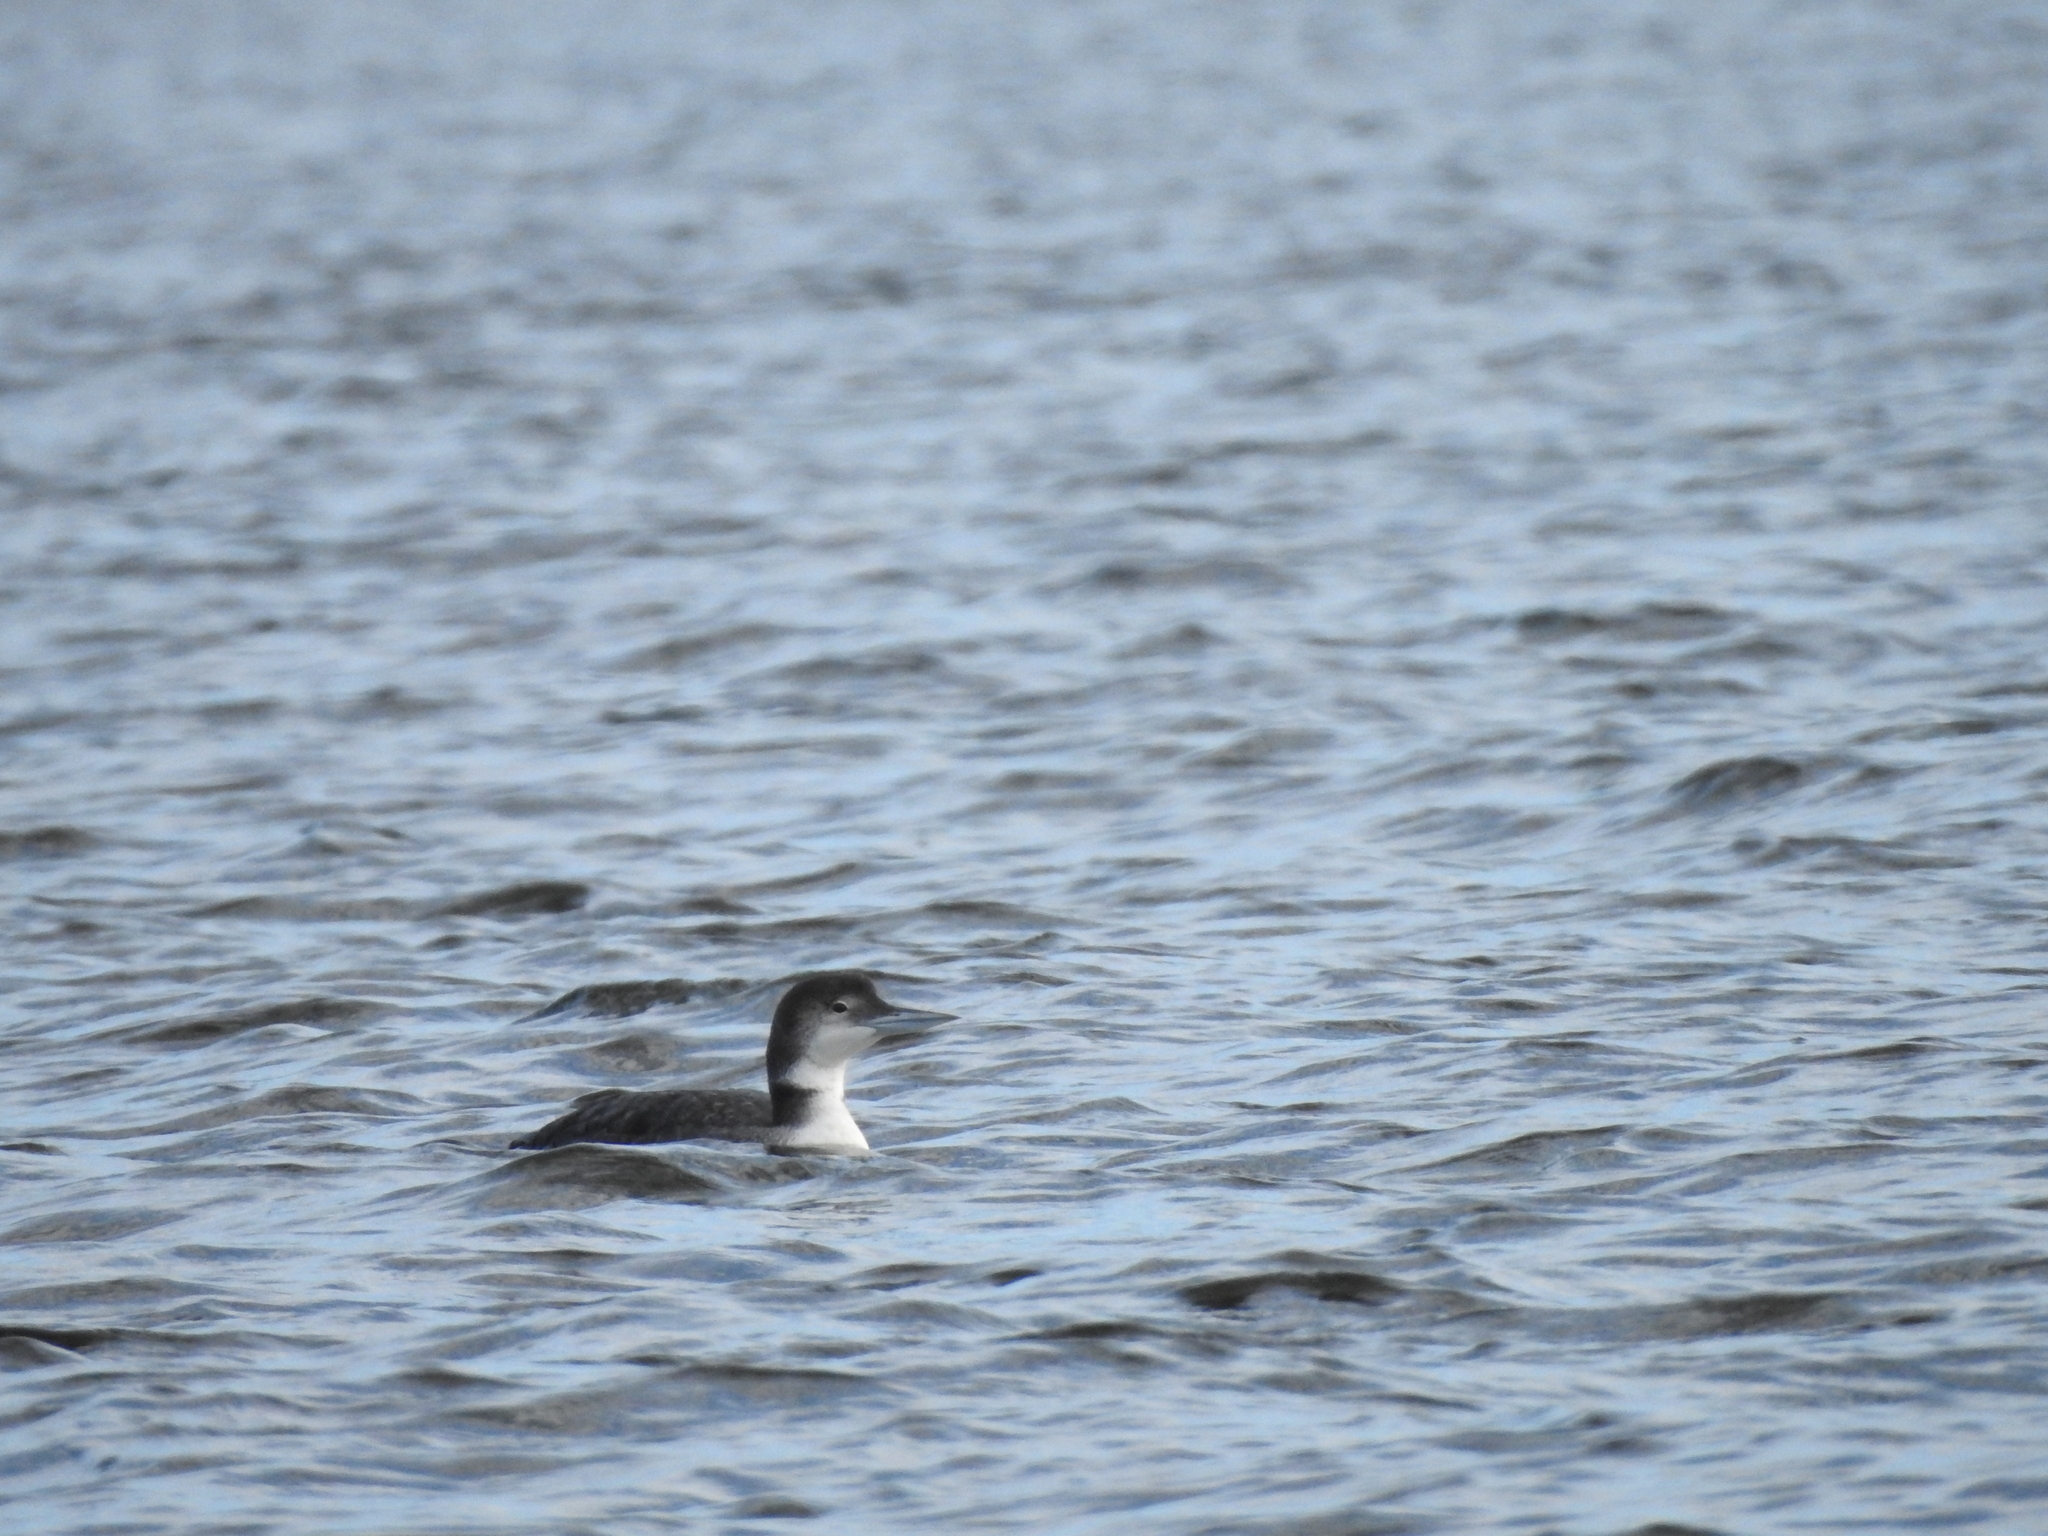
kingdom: Animalia
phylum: Chordata
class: Aves
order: Gaviiformes
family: Gaviidae
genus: Gavia
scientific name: Gavia immer
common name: Common loon
